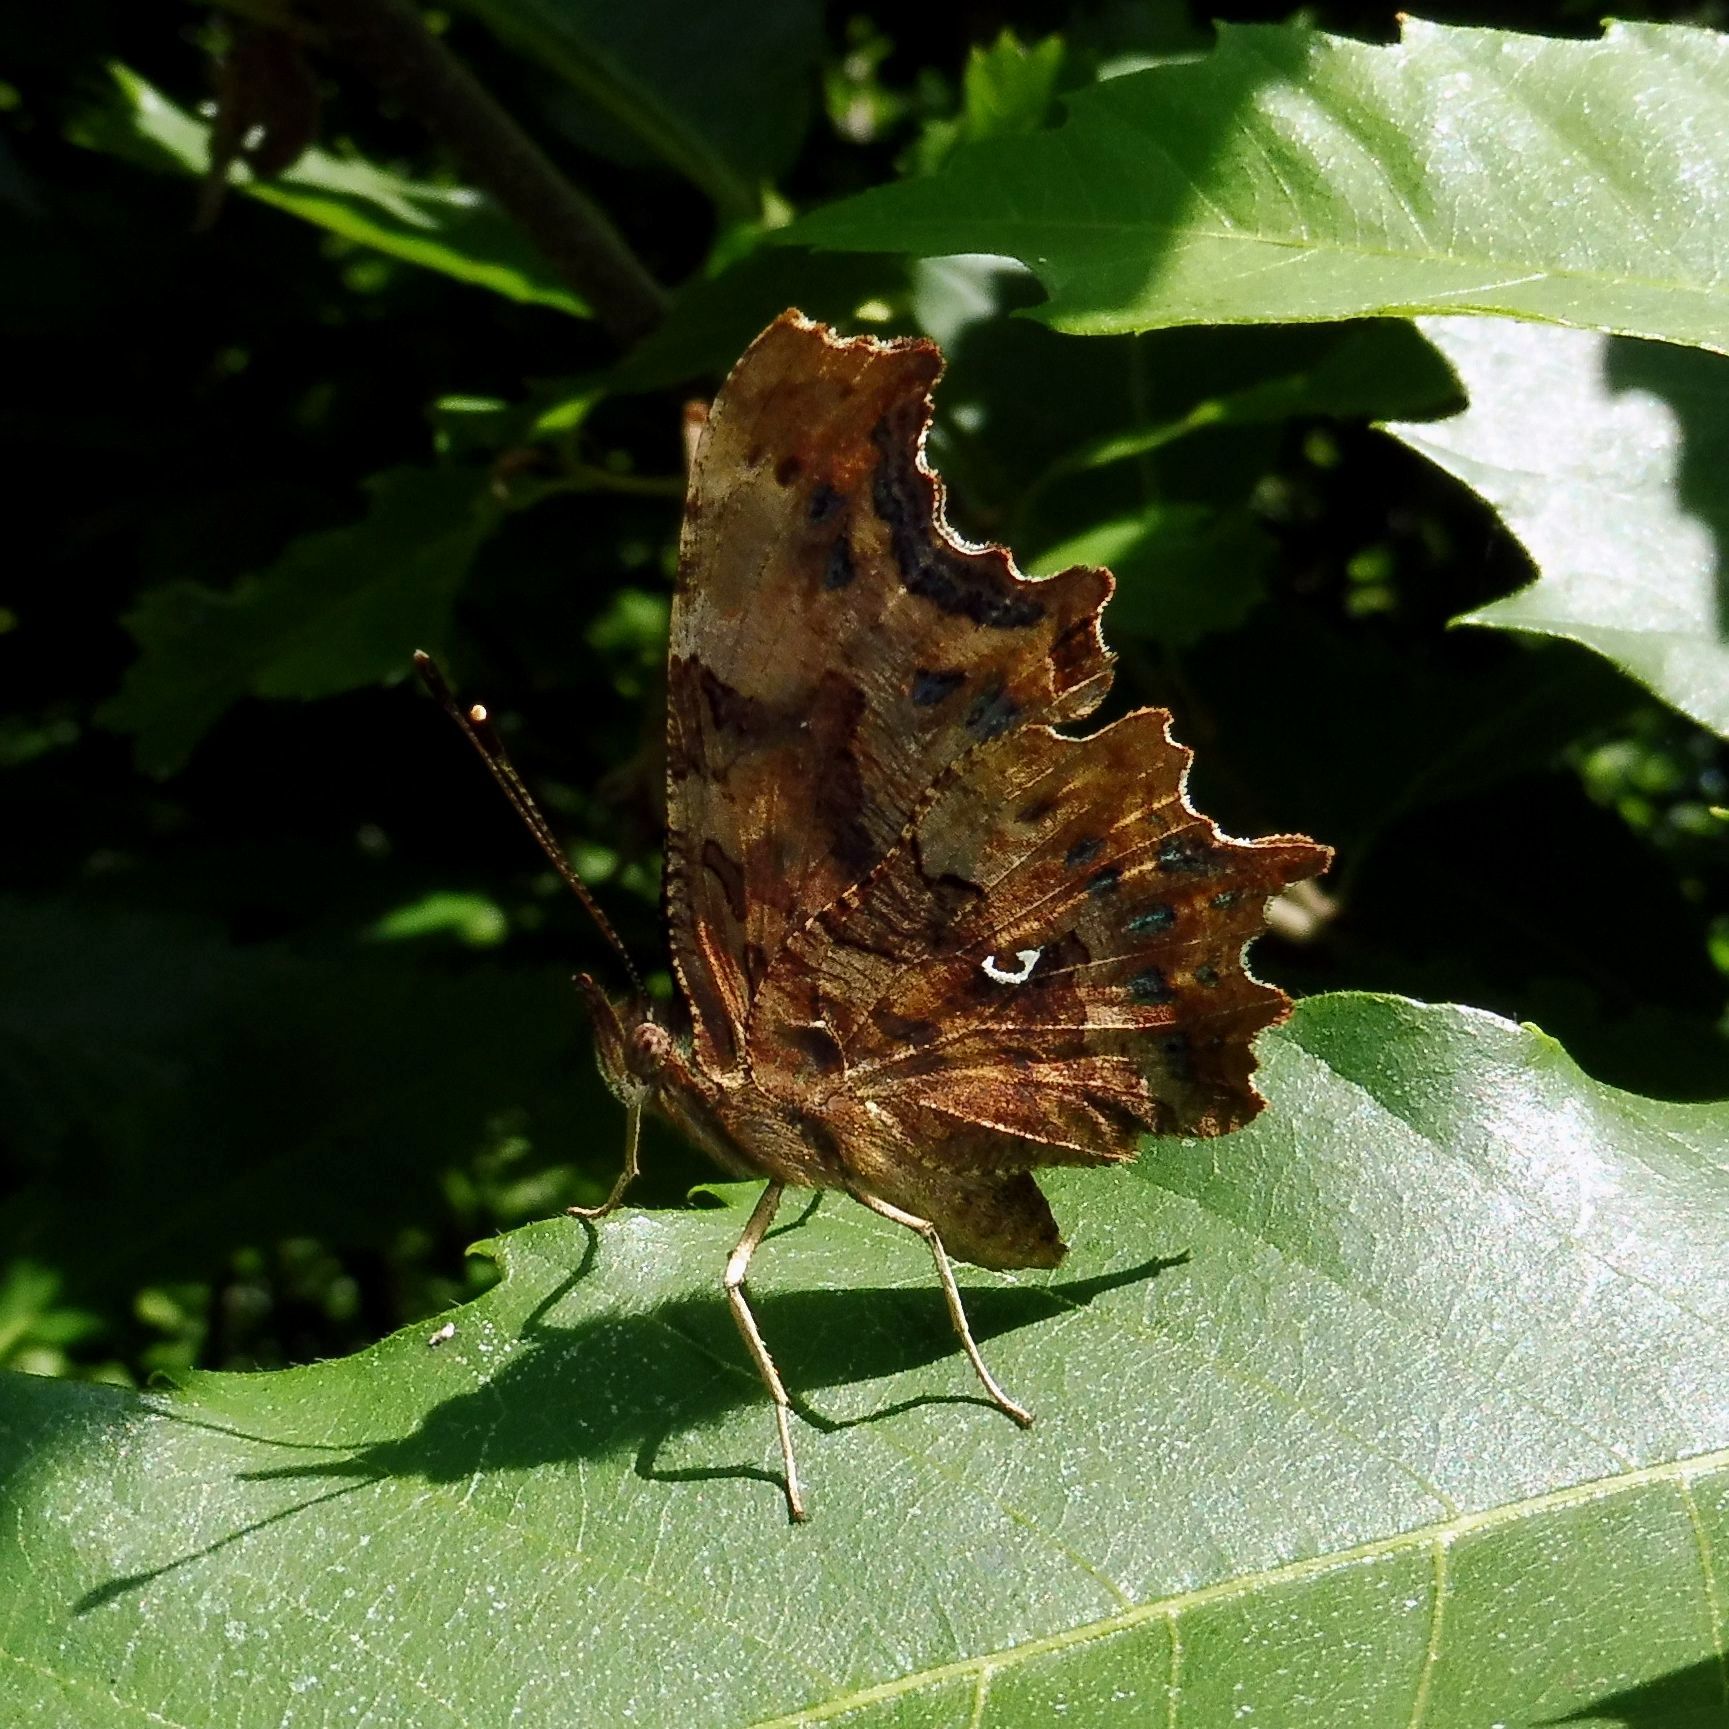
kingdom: Animalia
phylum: Arthropoda
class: Insecta
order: Lepidoptera
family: Nymphalidae
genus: Polygonia
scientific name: Polygonia c-album
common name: Comma
